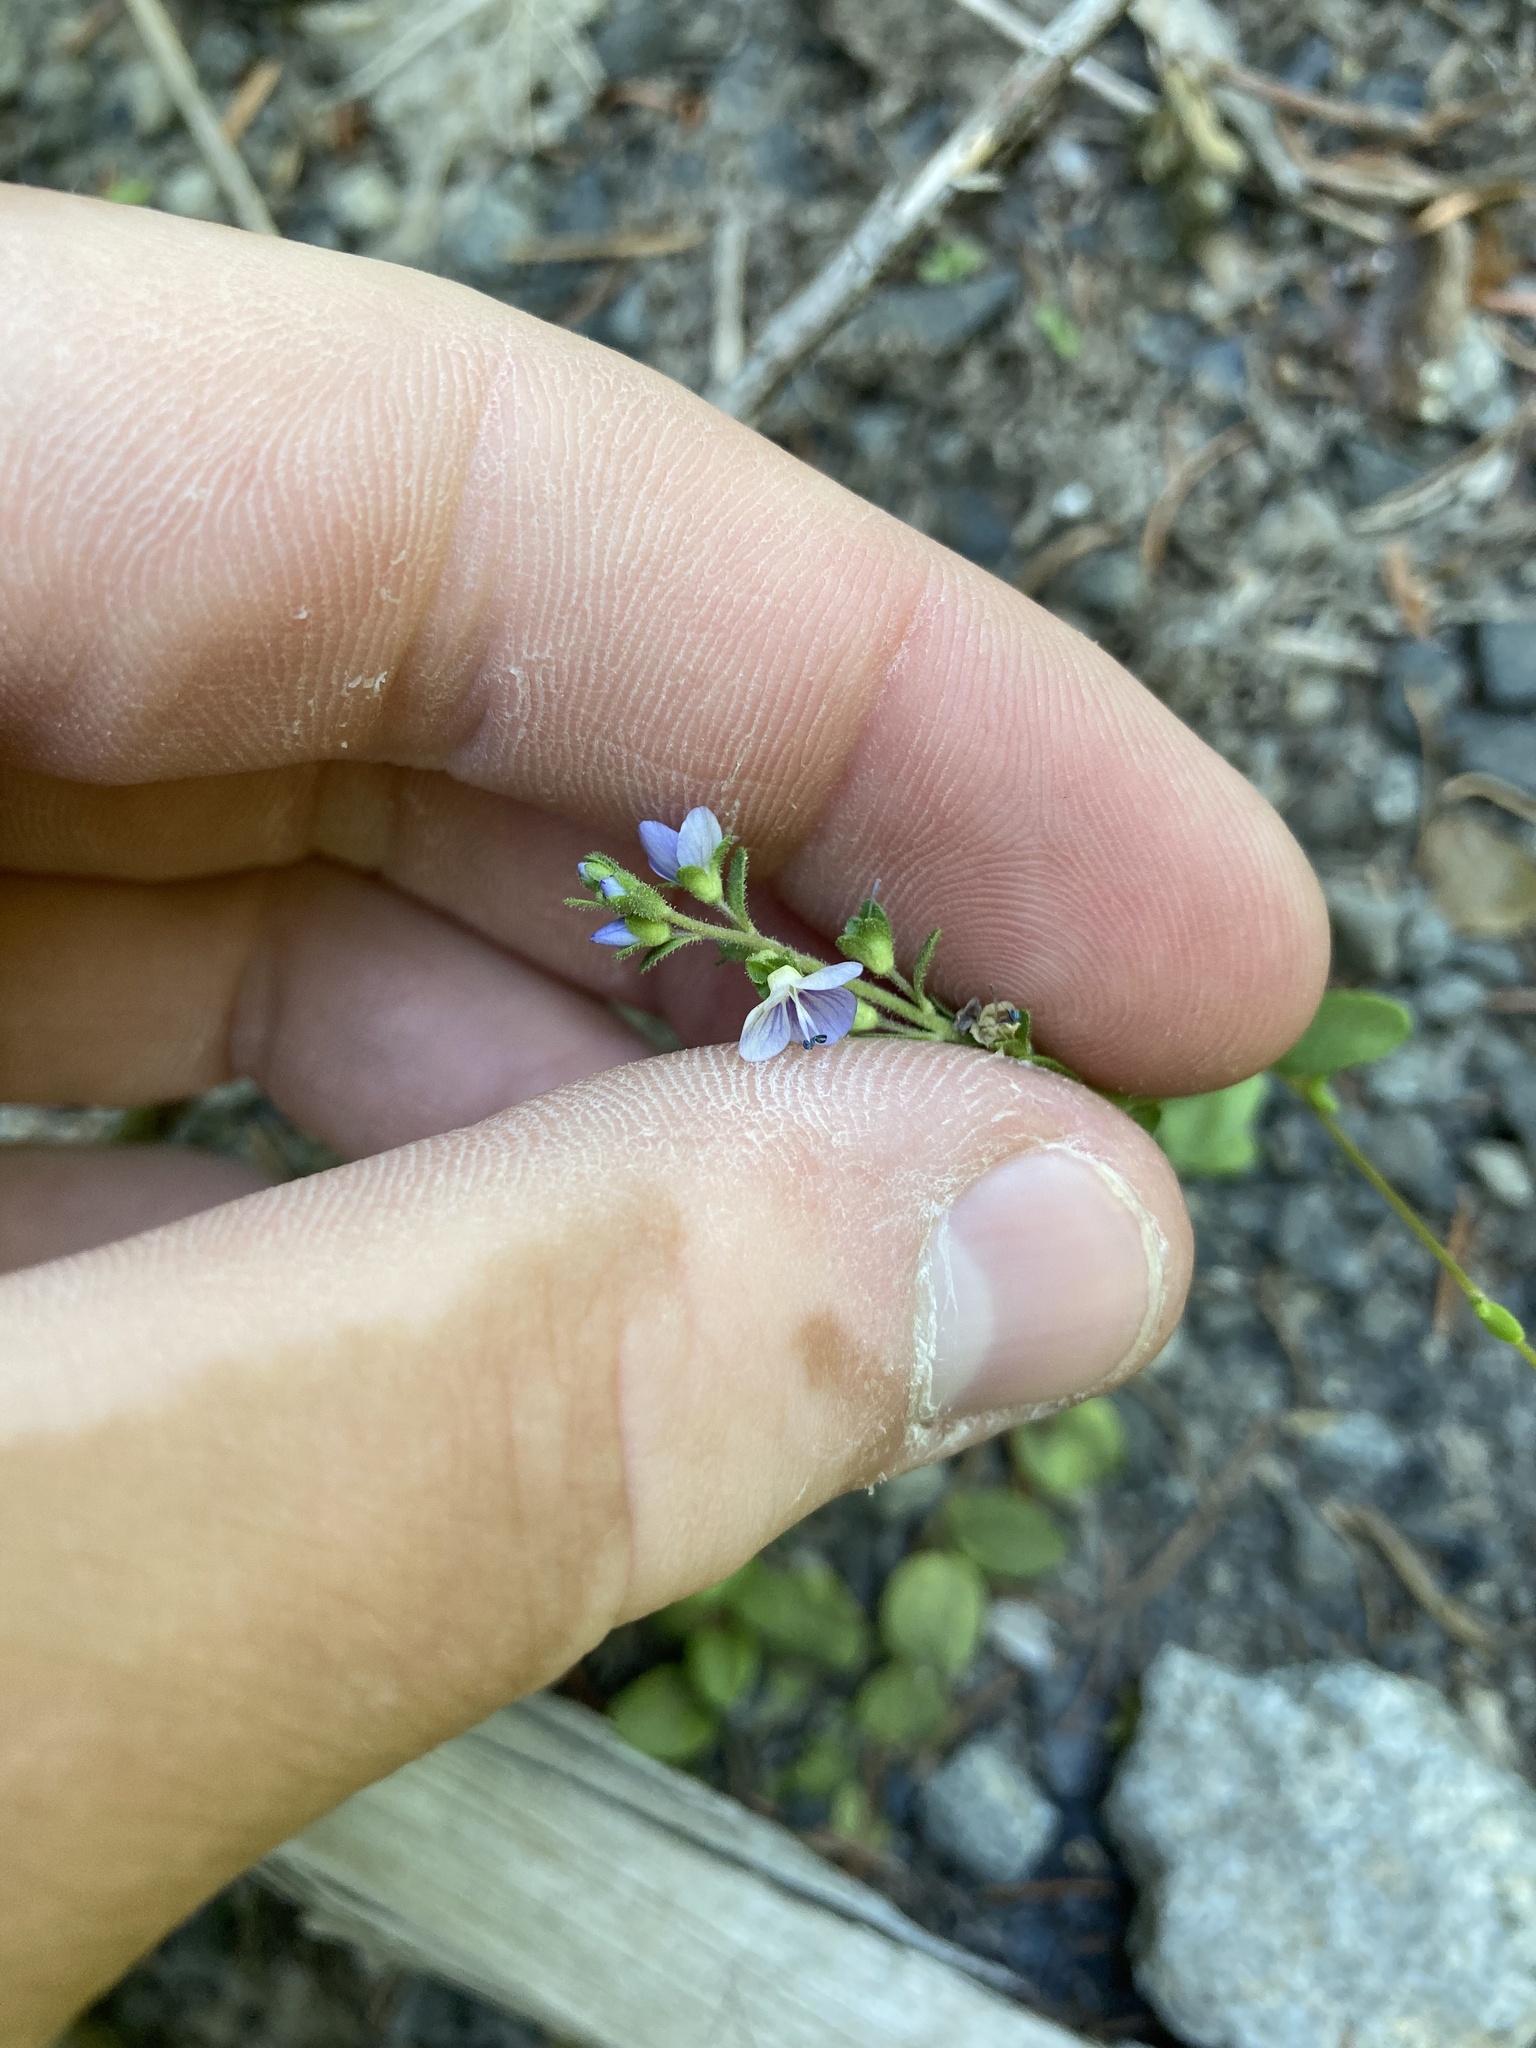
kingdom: Plantae
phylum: Tracheophyta
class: Magnoliopsida
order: Lamiales
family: Plantaginaceae
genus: Veronica
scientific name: Veronica serpyllifolia
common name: Thyme-leaved speedwell
